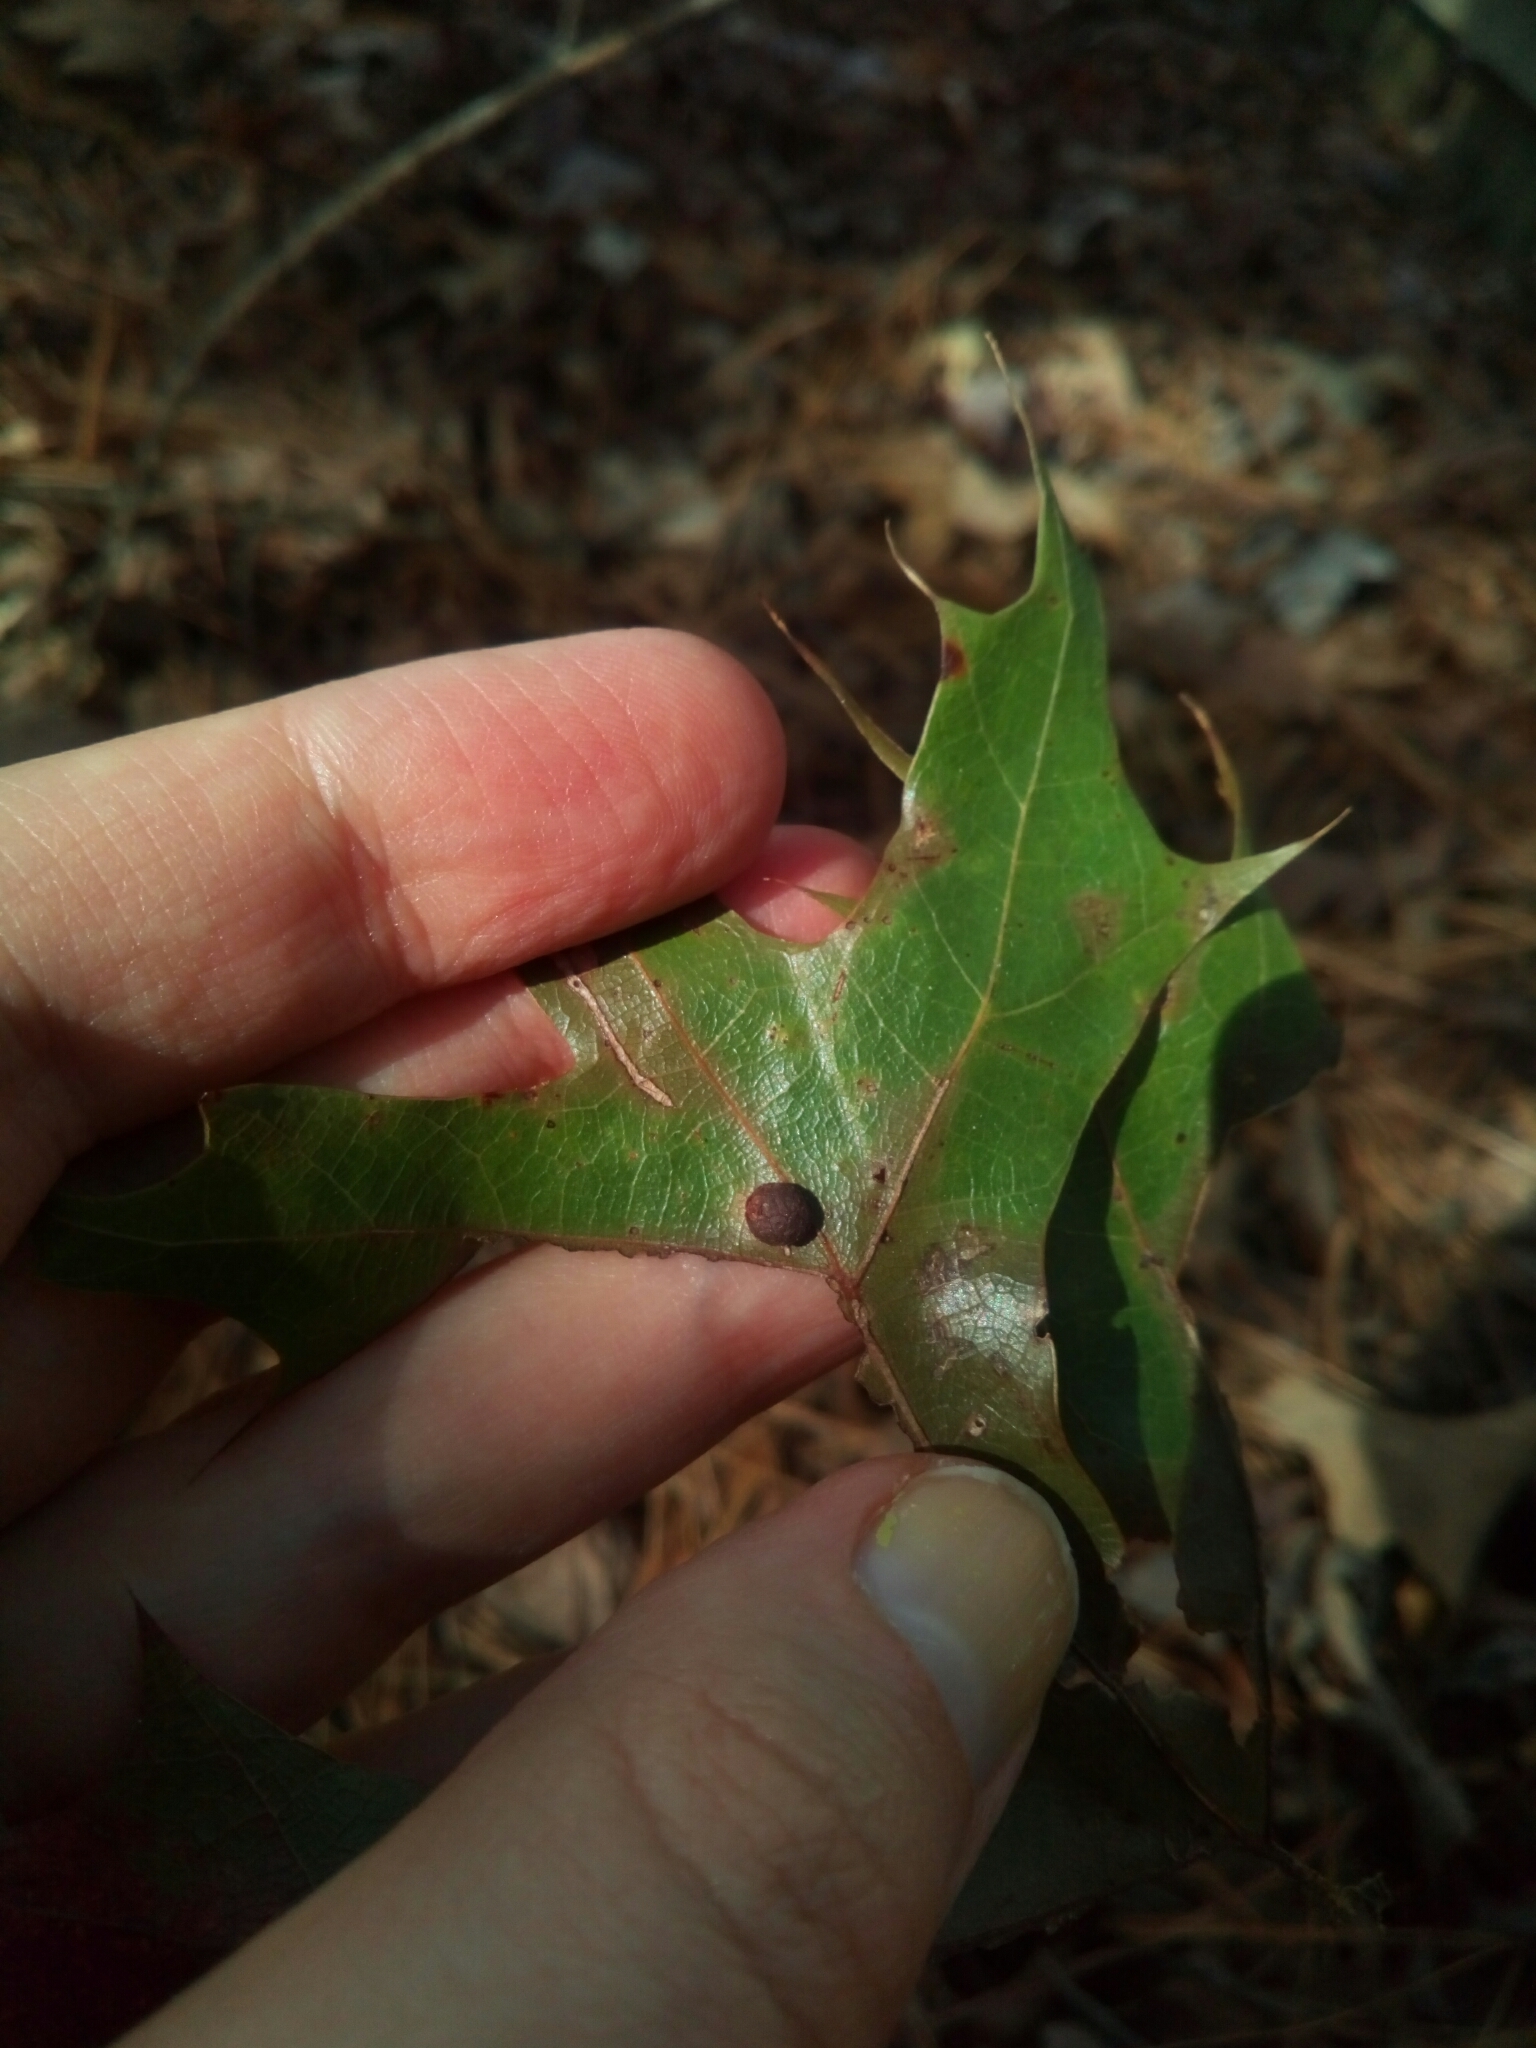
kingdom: Animalia
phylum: Arthropoda
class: Insecta
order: Diptera
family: Cecidomyiidae
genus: Polystepha
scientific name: Polystepha pilulae
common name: Oak leaf gall midge
